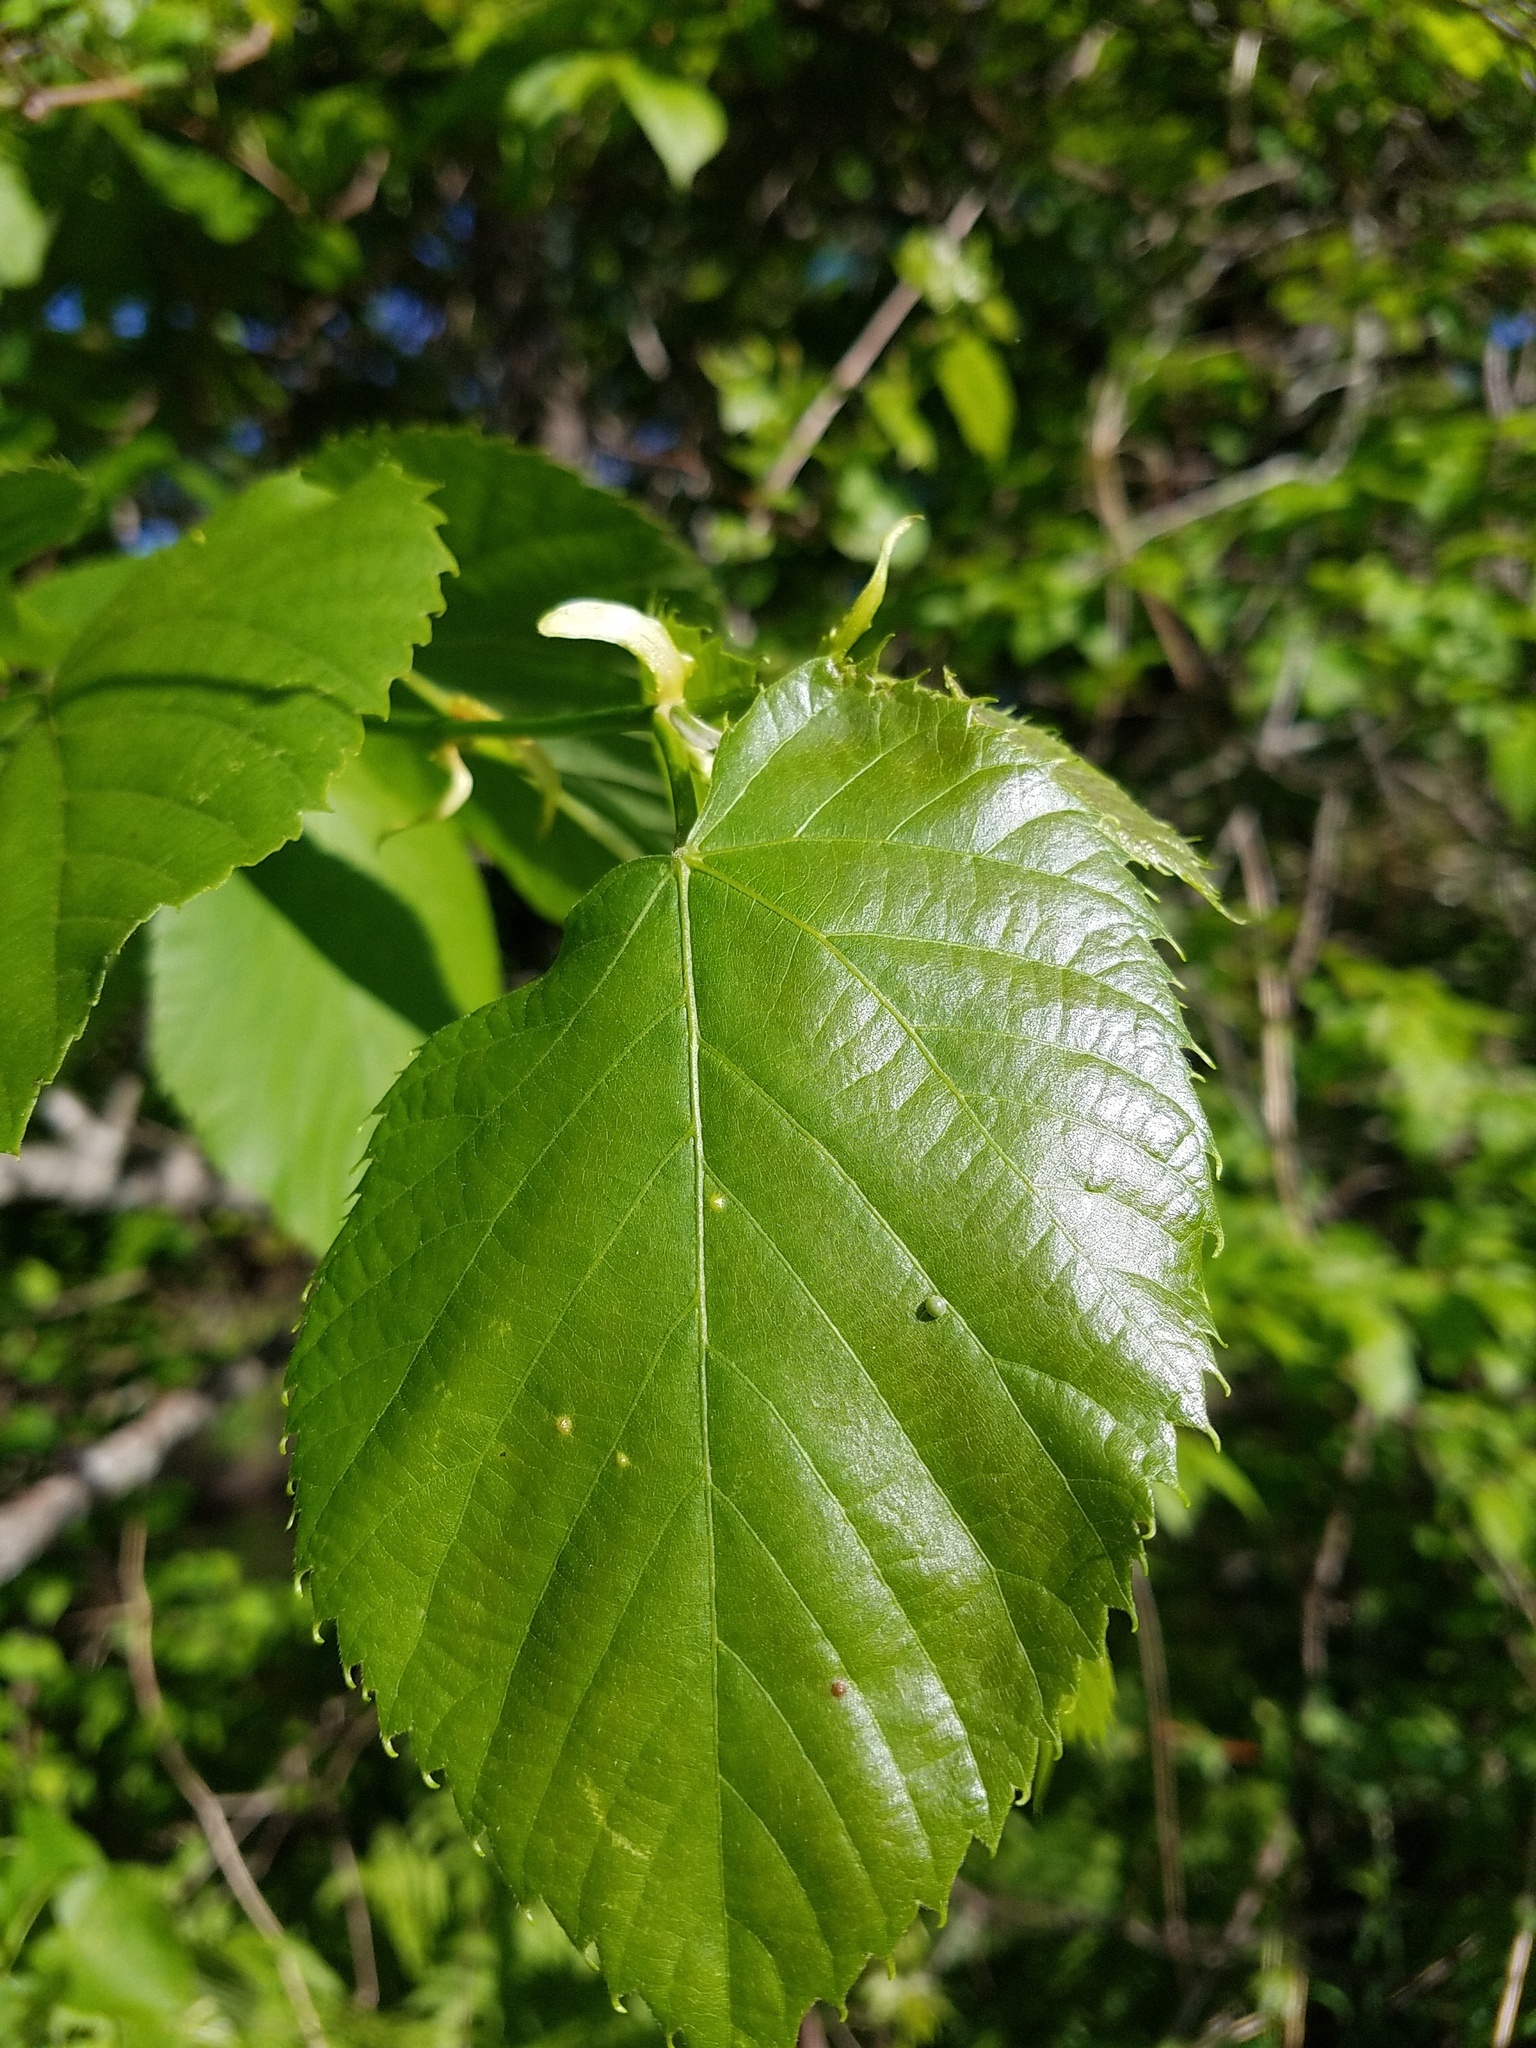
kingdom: Plantae
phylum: Tracheophyta
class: Magnoliopsida
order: Malvales
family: Malvaceae
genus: Tilia
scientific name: Tilia americana
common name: Basswood
